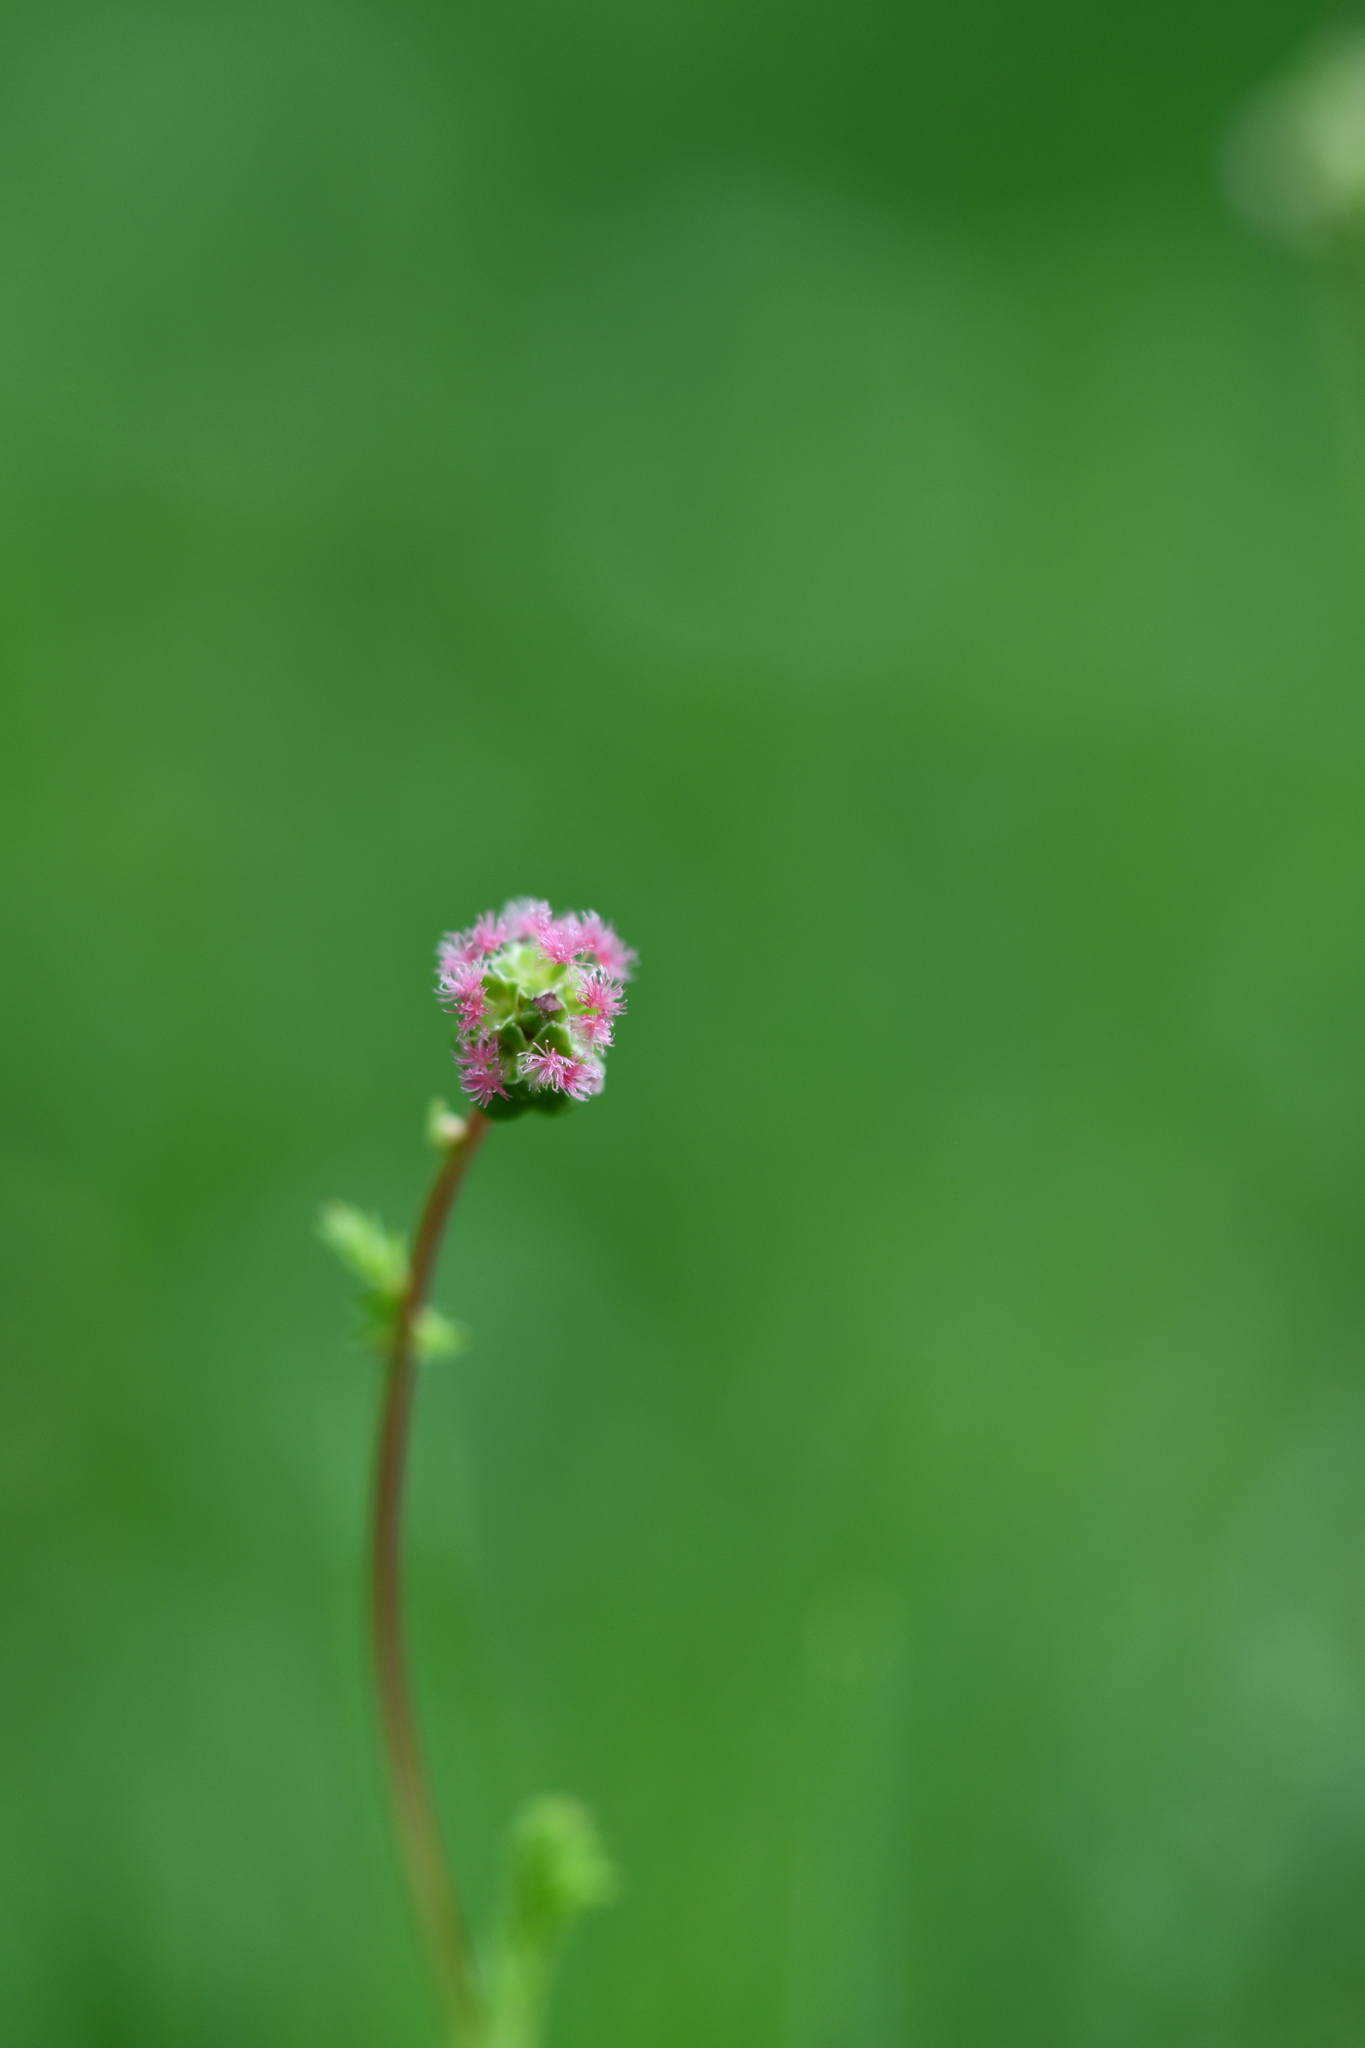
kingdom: Plantae
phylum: Tracheophyta
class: Magnoliopsida
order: Rosales
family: Rosaceae
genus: Poterium
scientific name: Poterium sanguisorba
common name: Salad burnet
